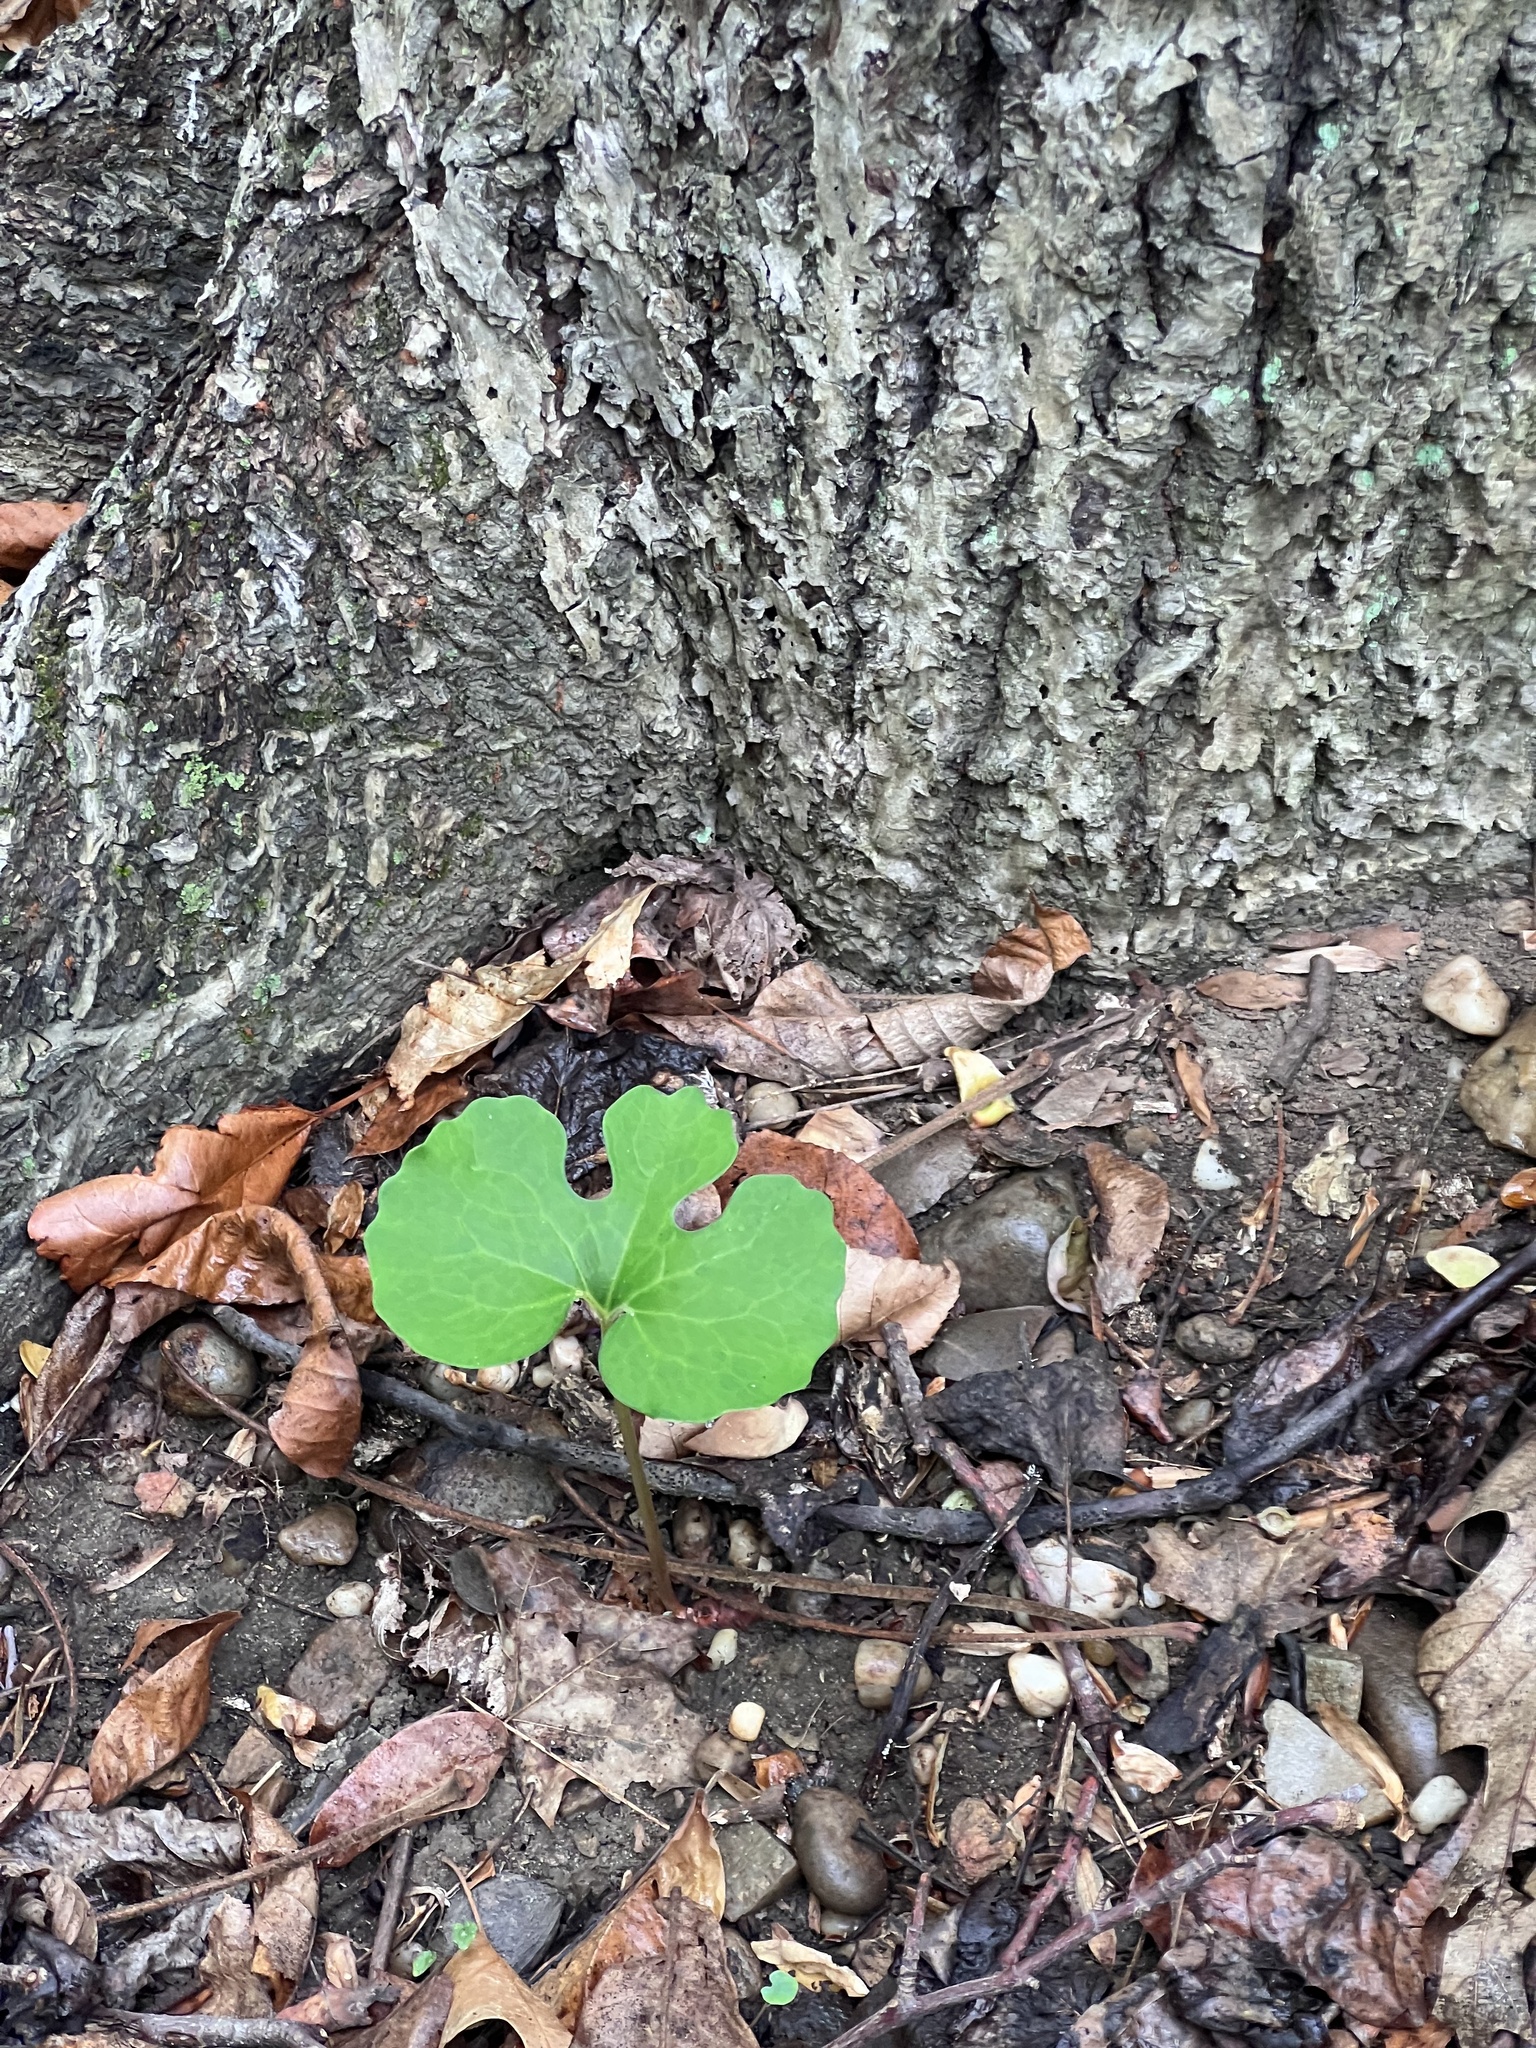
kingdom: Plantae
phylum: Tracheophyta
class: Magnoliopsida
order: Ranunculales
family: Papaveraceae
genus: Sanguinaria
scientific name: Sanguinaria canadensis
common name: Bloodroot
